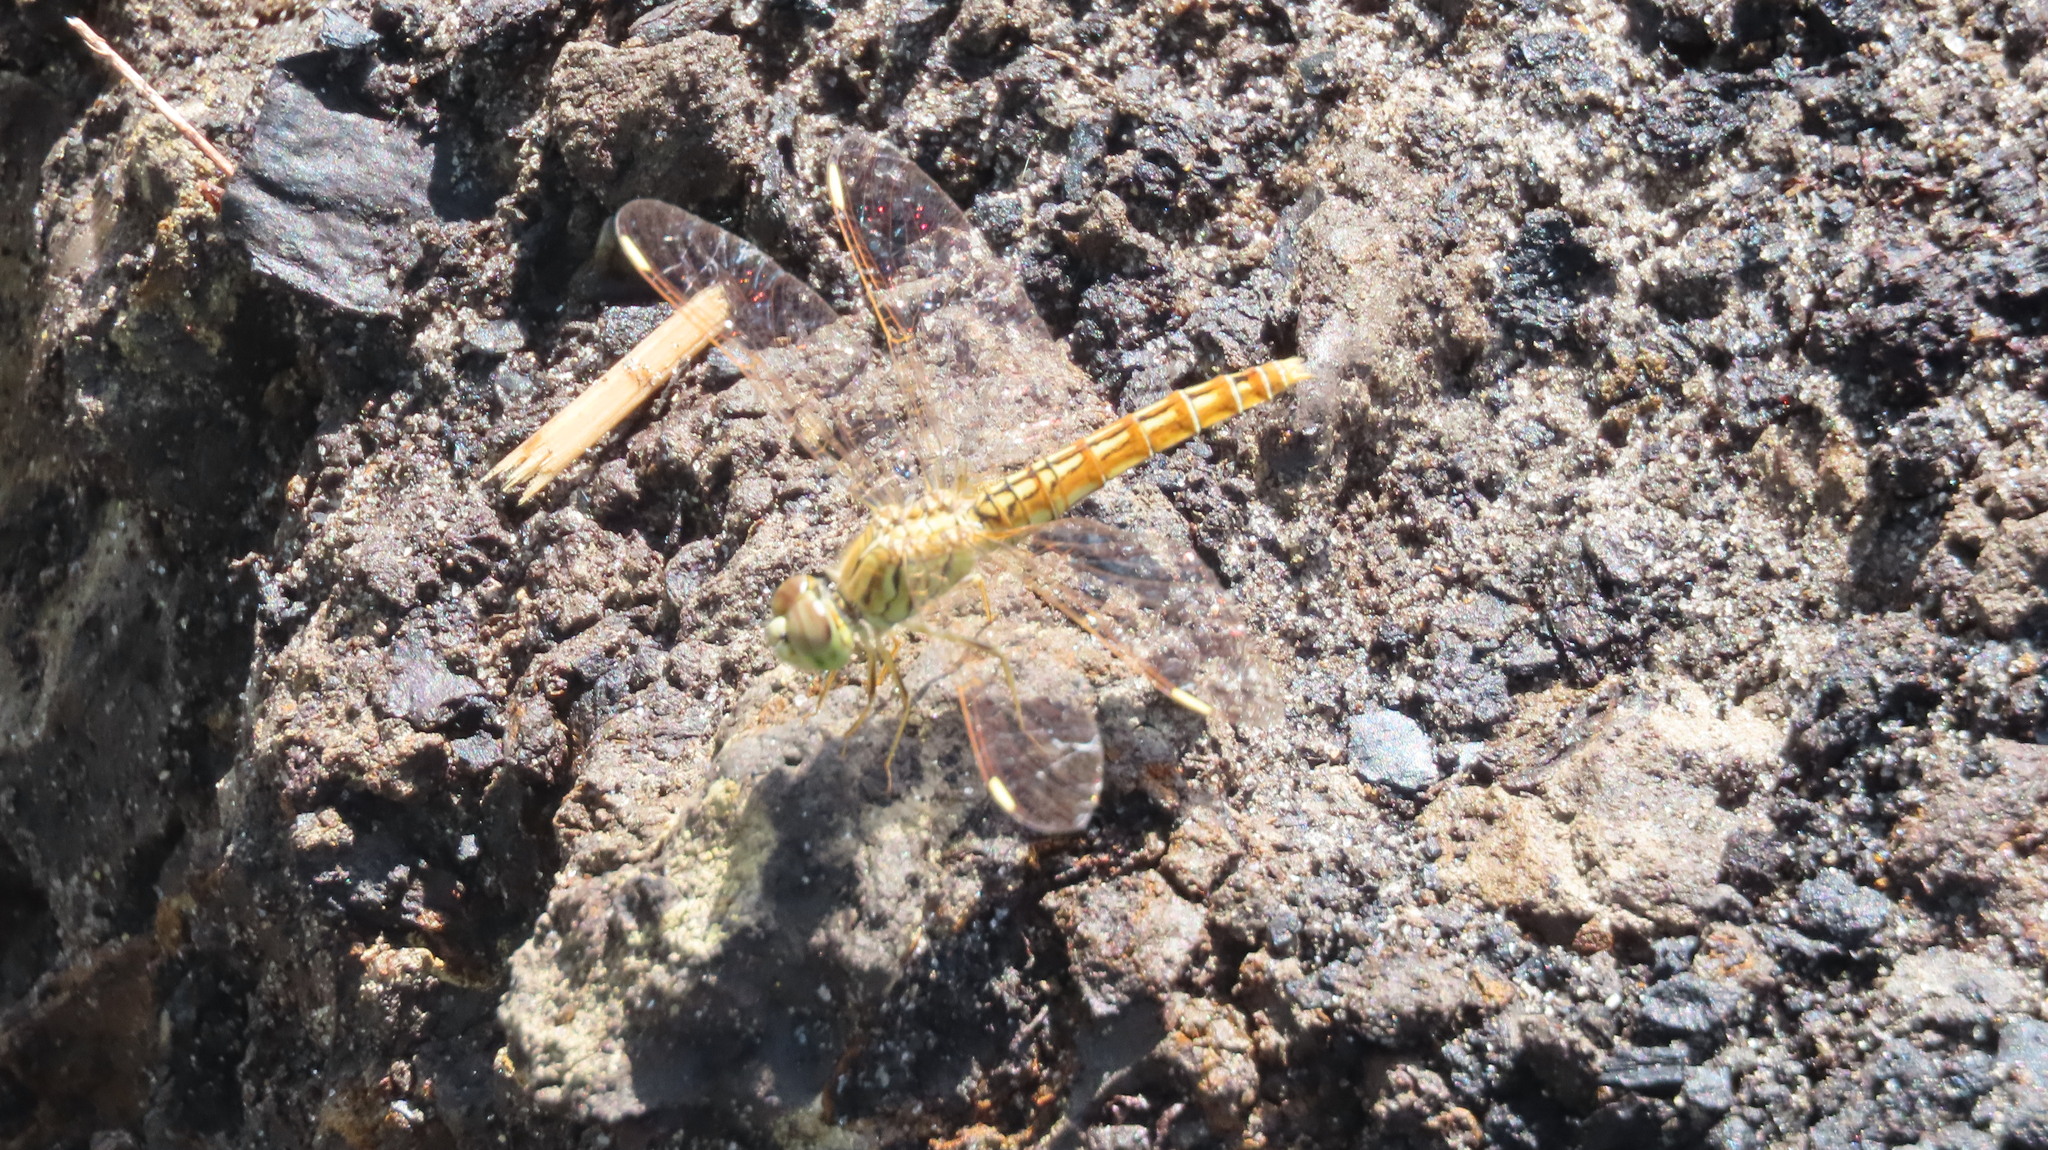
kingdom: Animalia
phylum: Arthropoda
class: Insecta
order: Odonata
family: Libellulidae
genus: Brachythemis
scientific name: Brachythemis contaminata
